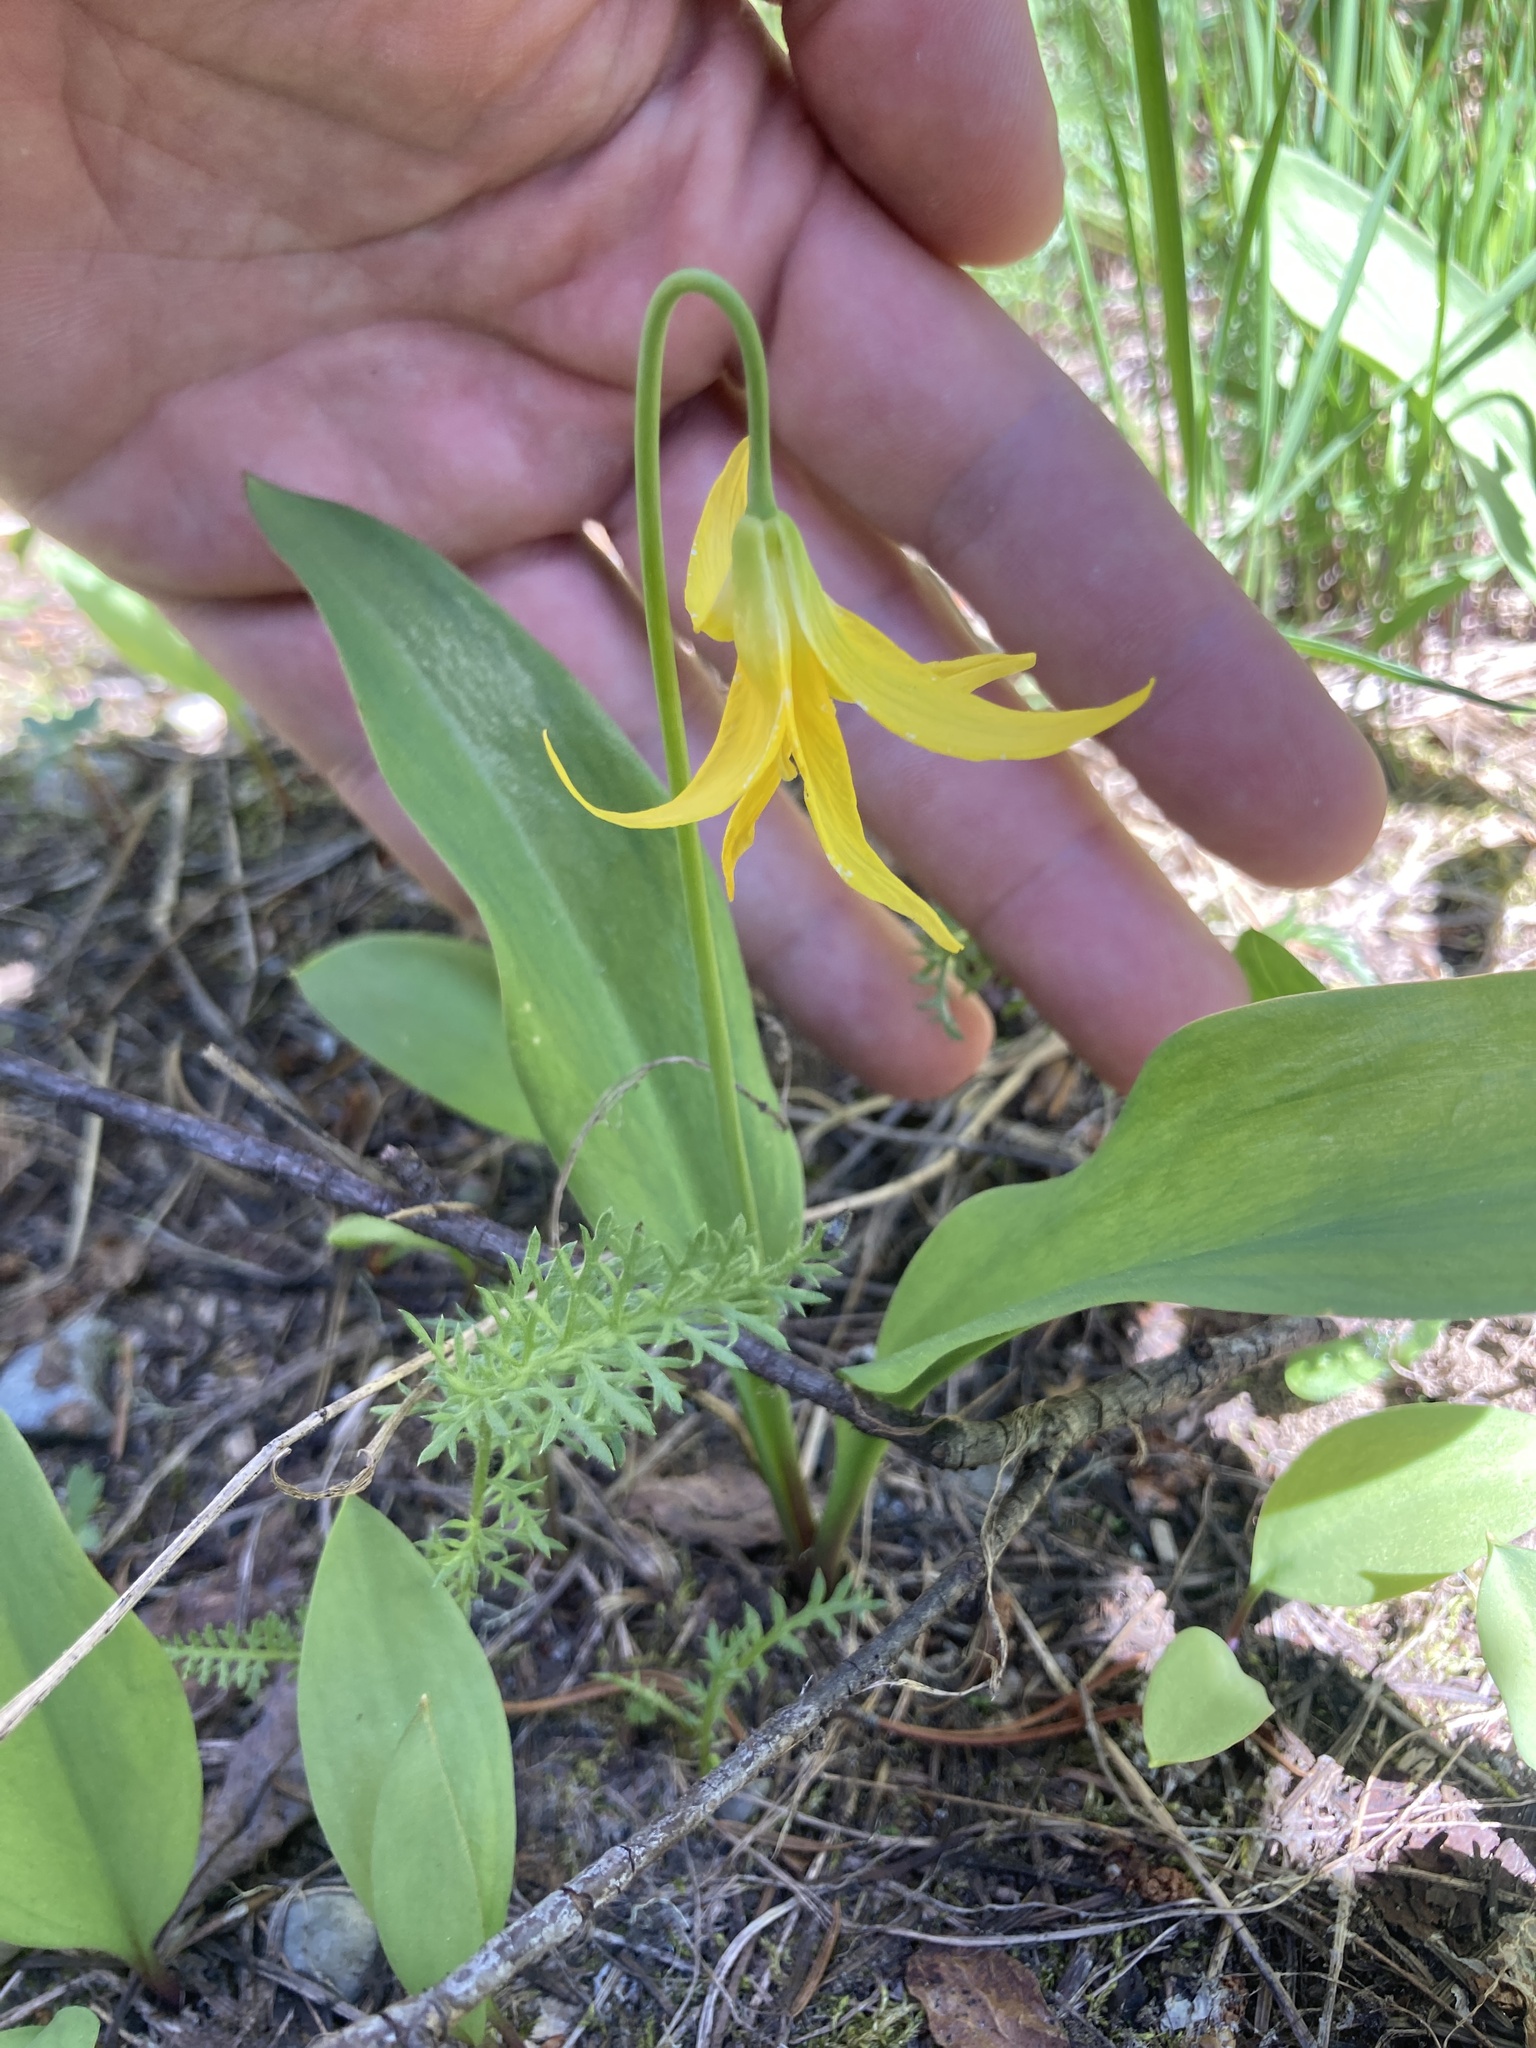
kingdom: Plantae
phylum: Tracheophyta
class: Liliopsida
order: Liliales
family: Liliaceae
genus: Erythronium
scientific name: Erythronium grandiflorum
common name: Avalanche-lily
